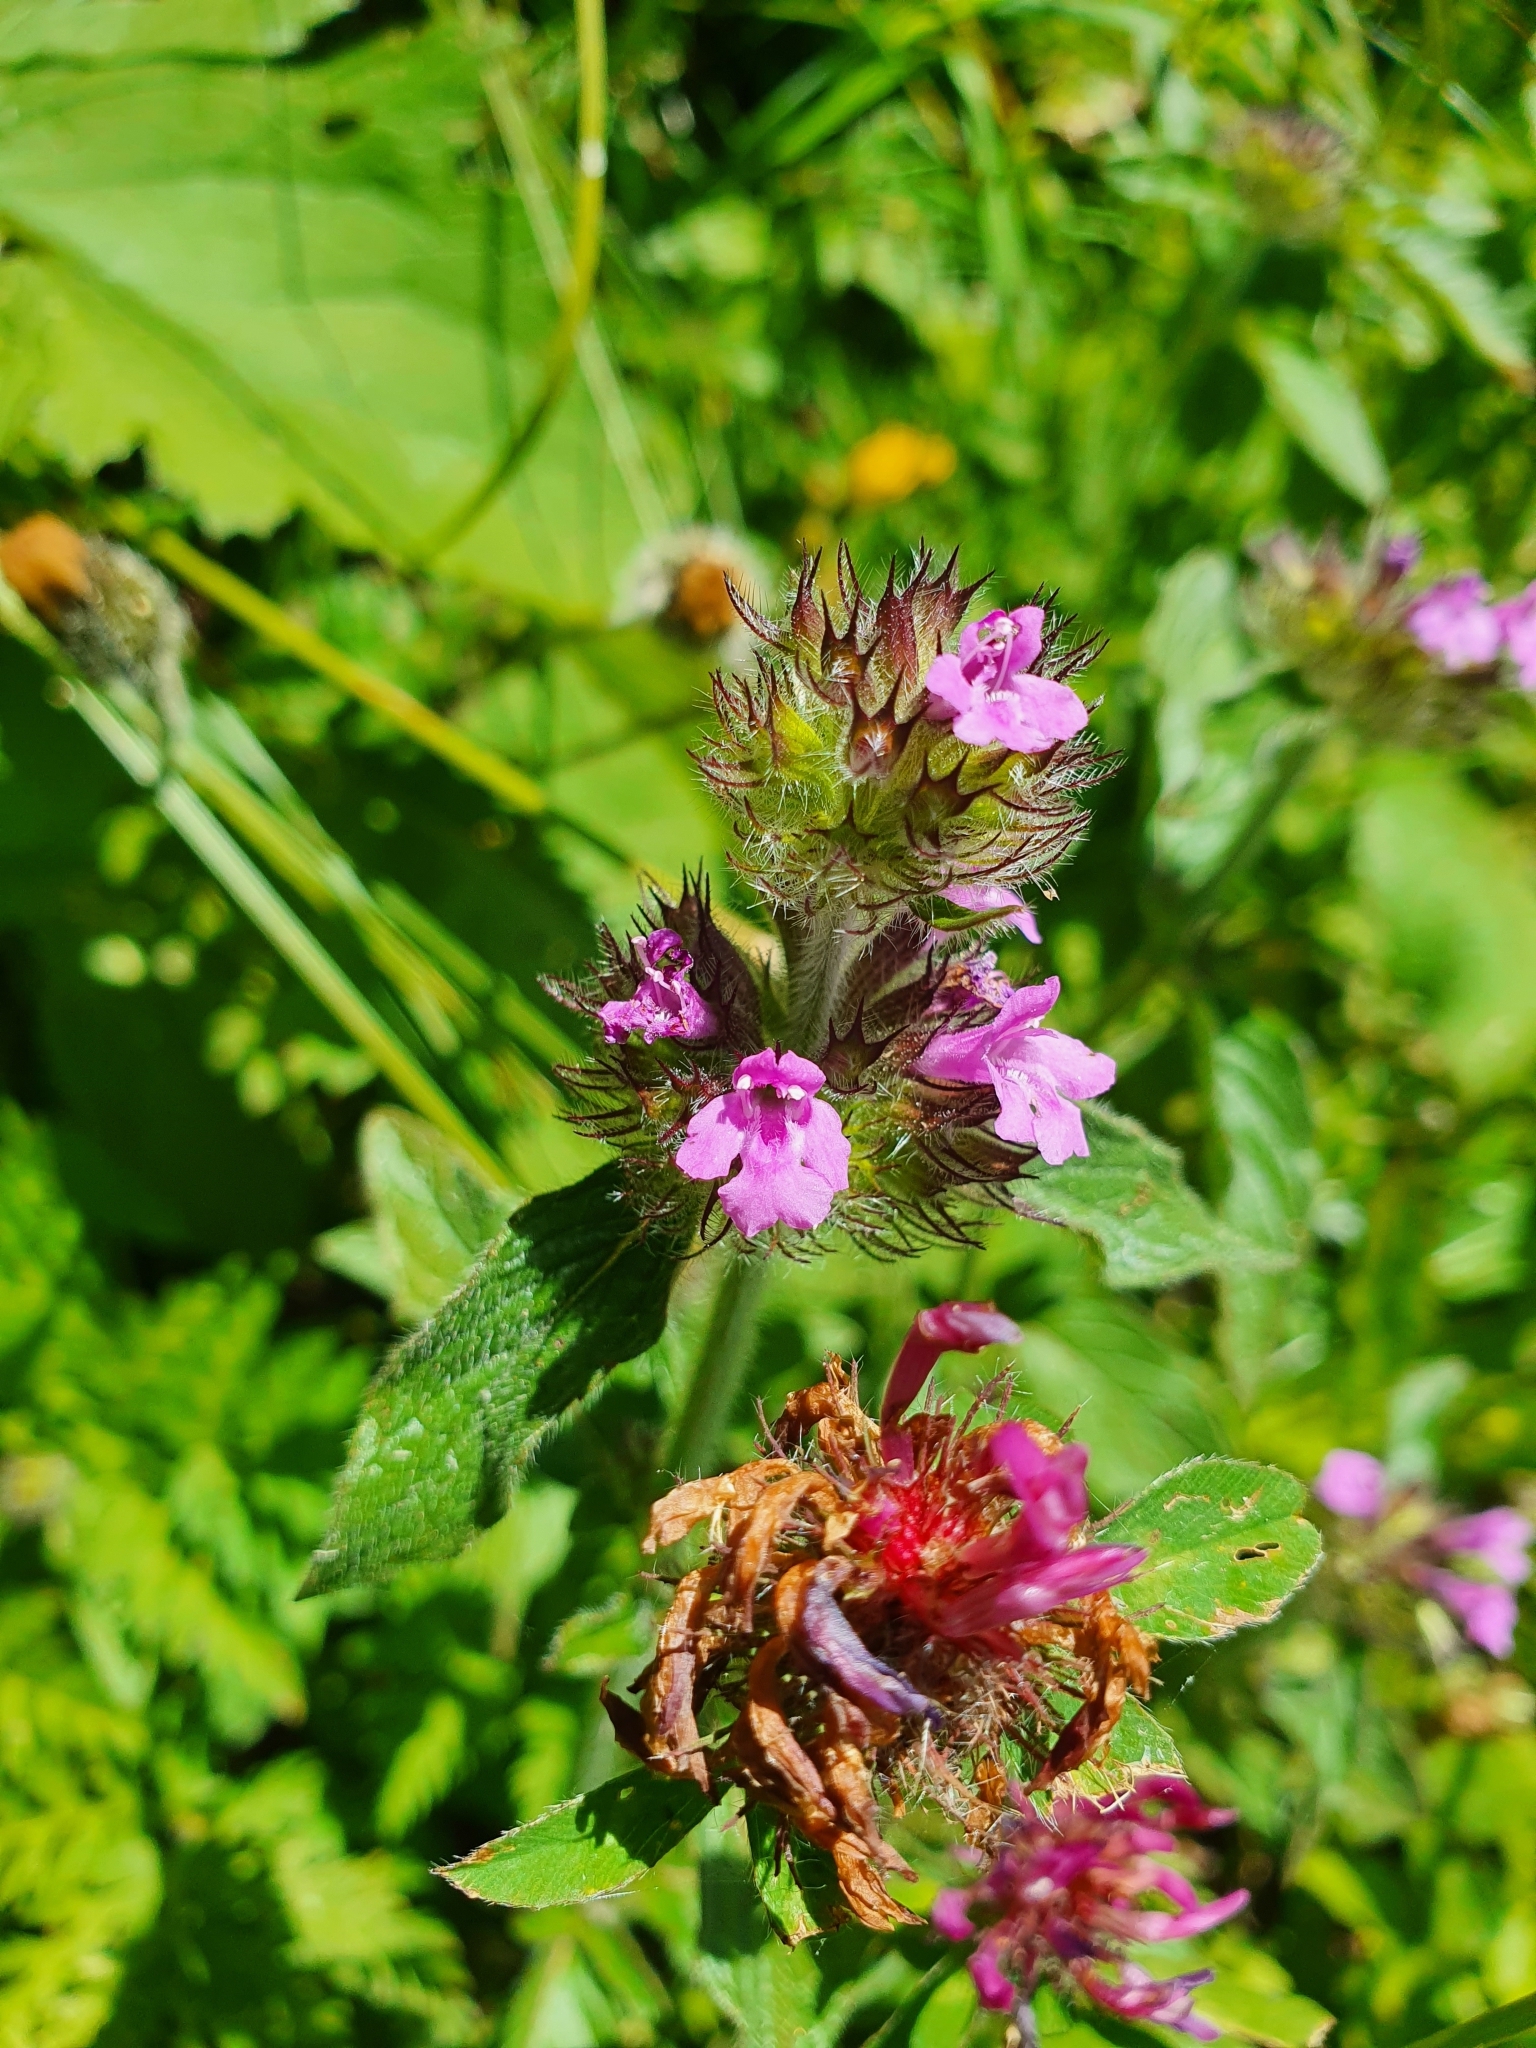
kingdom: Plantae
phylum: Tracheophyta
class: Magnoliopsida
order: Lamiales
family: Lamiaceae
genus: Clinopodium
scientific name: Clinopodium vulgare
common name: Wild basil
